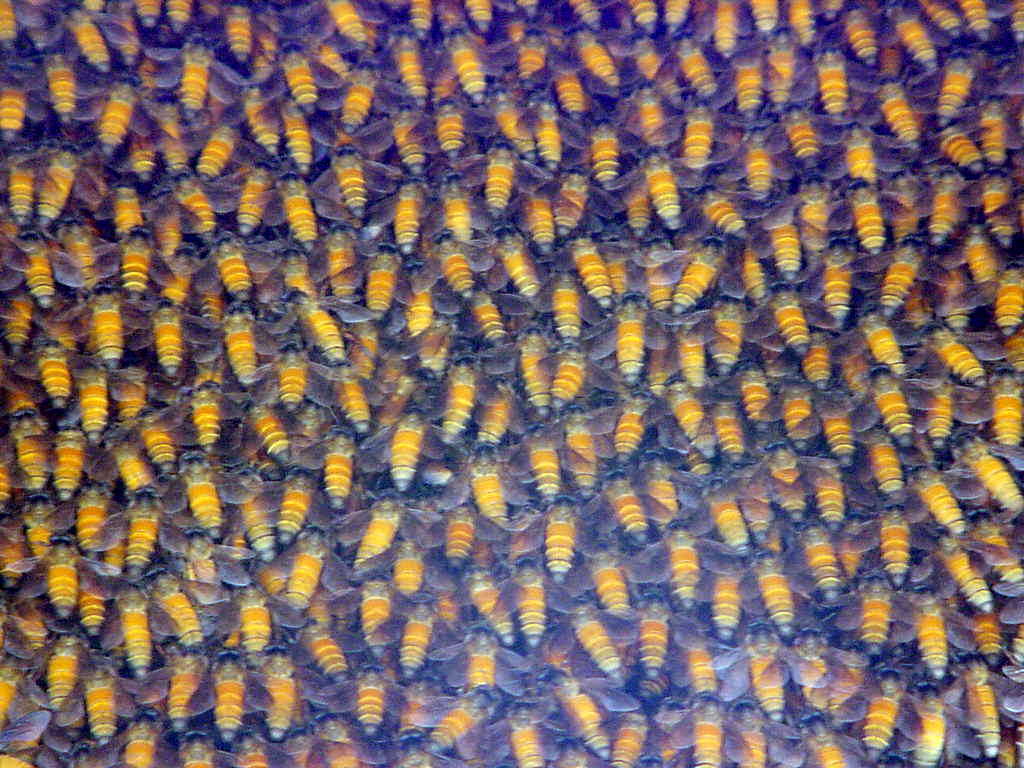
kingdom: Animalia
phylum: Arthropoda
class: Insecta
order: Hymenoptera
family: Apidae
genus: Apis
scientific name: Apis dorsata
